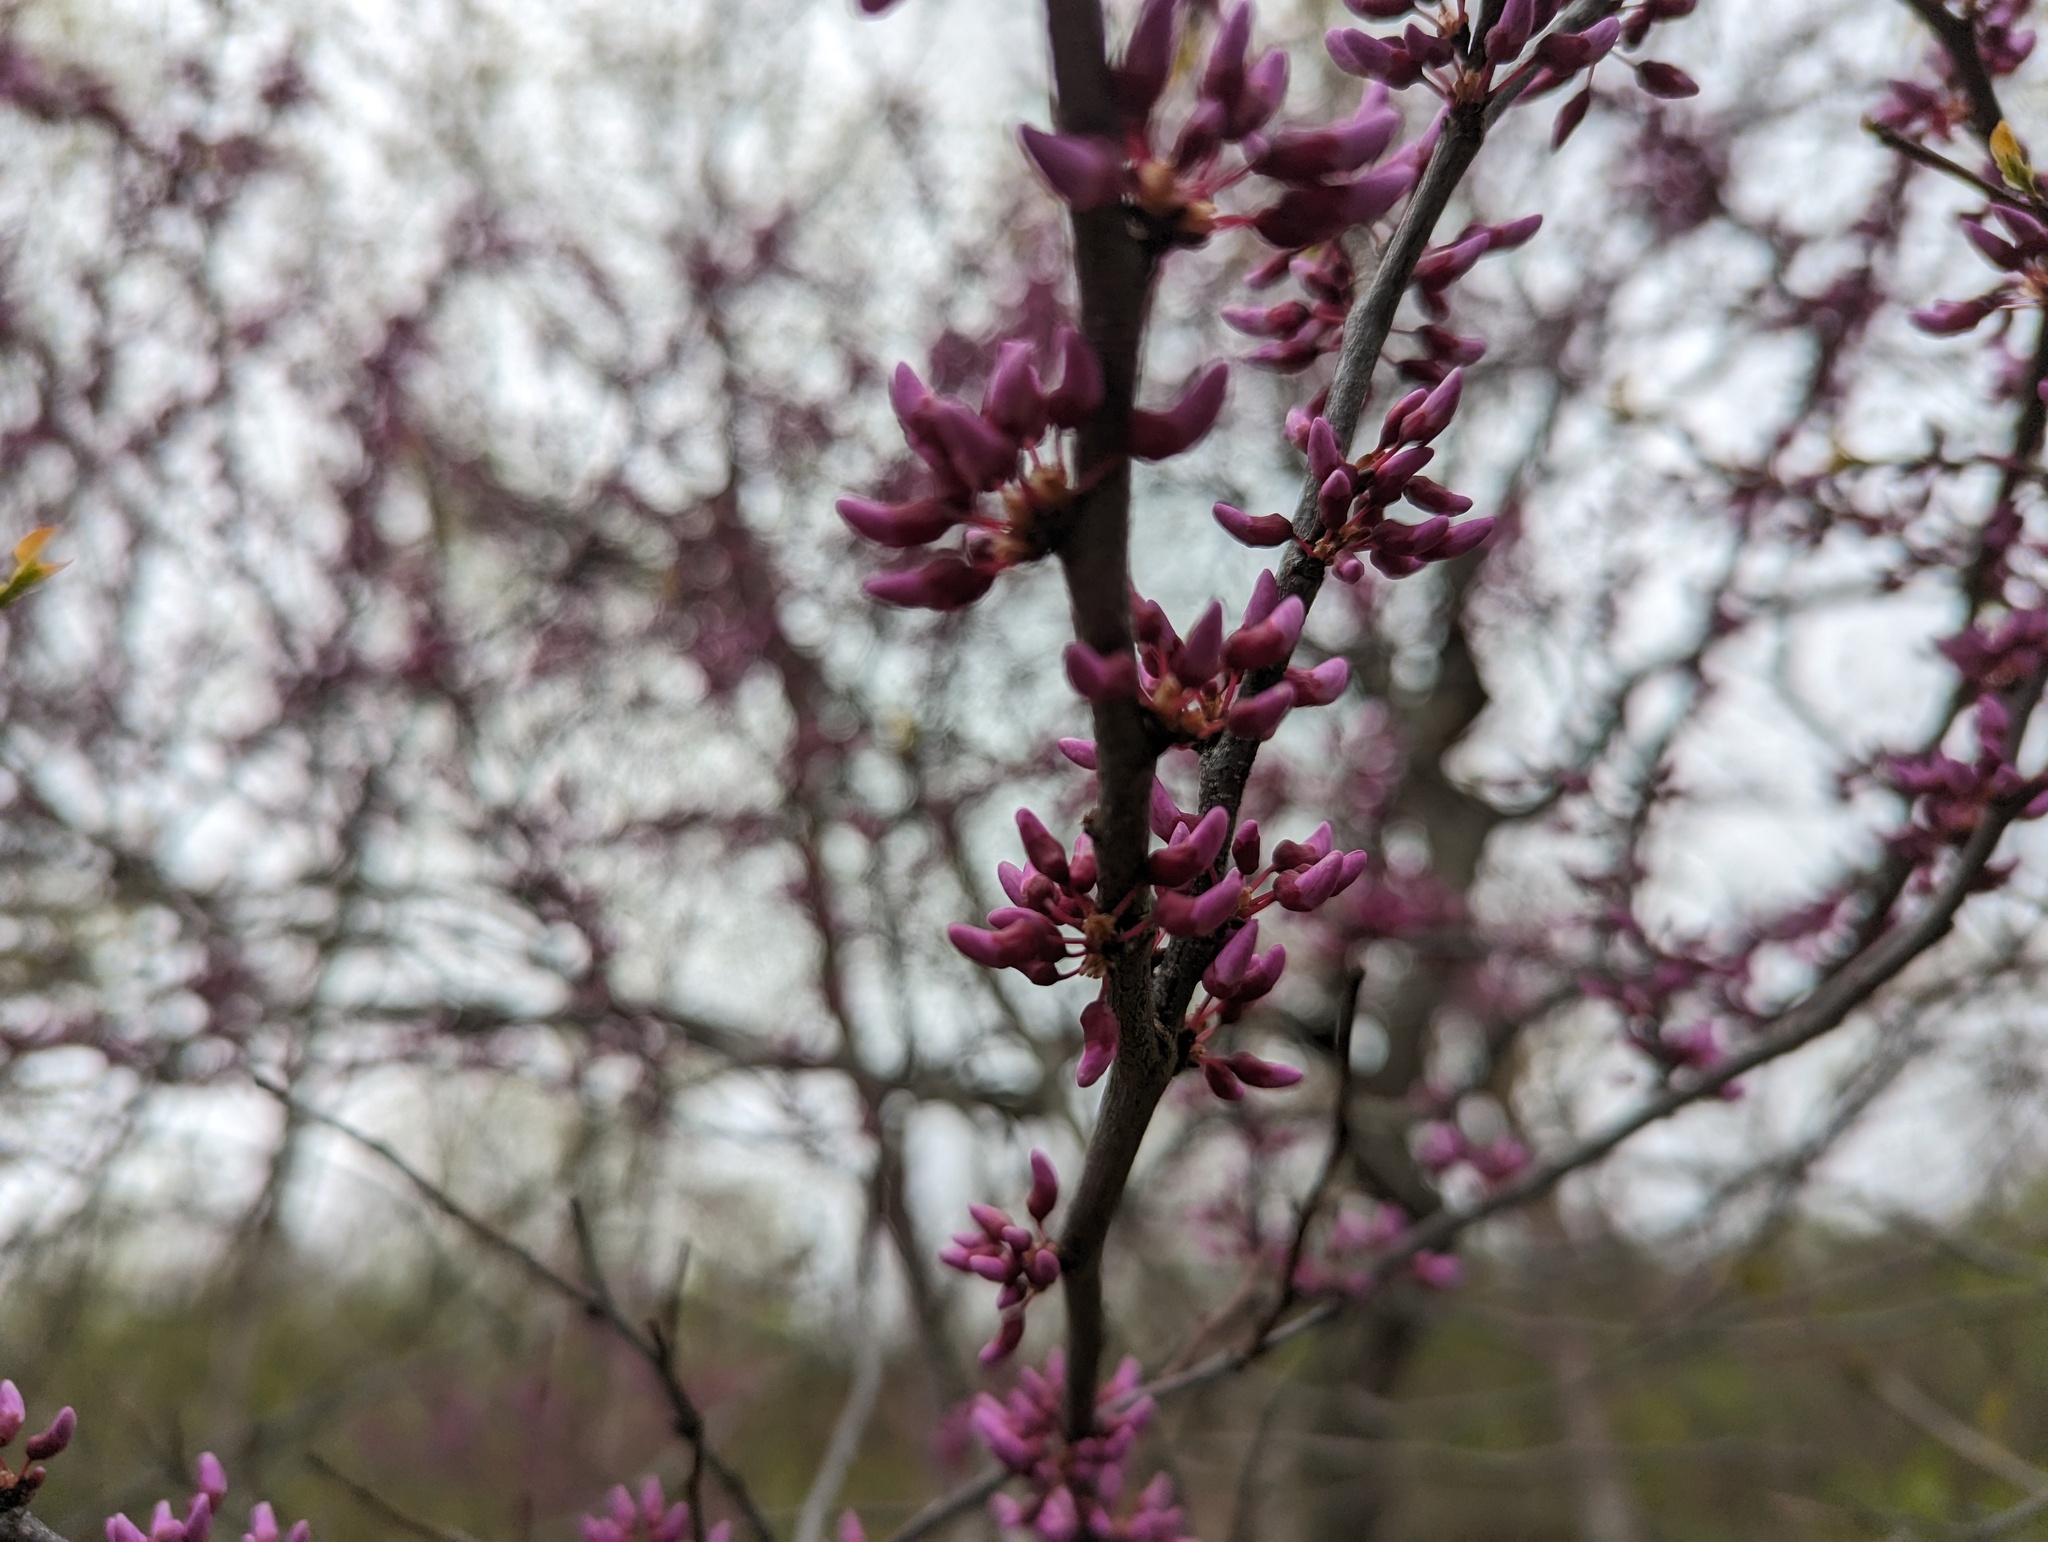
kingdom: Plantae
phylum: Tracheophyta
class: Magnoliopsida
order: Fabales
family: Fabaceae
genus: Cercis
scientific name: Cercis canadensis
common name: Eastern redbud
